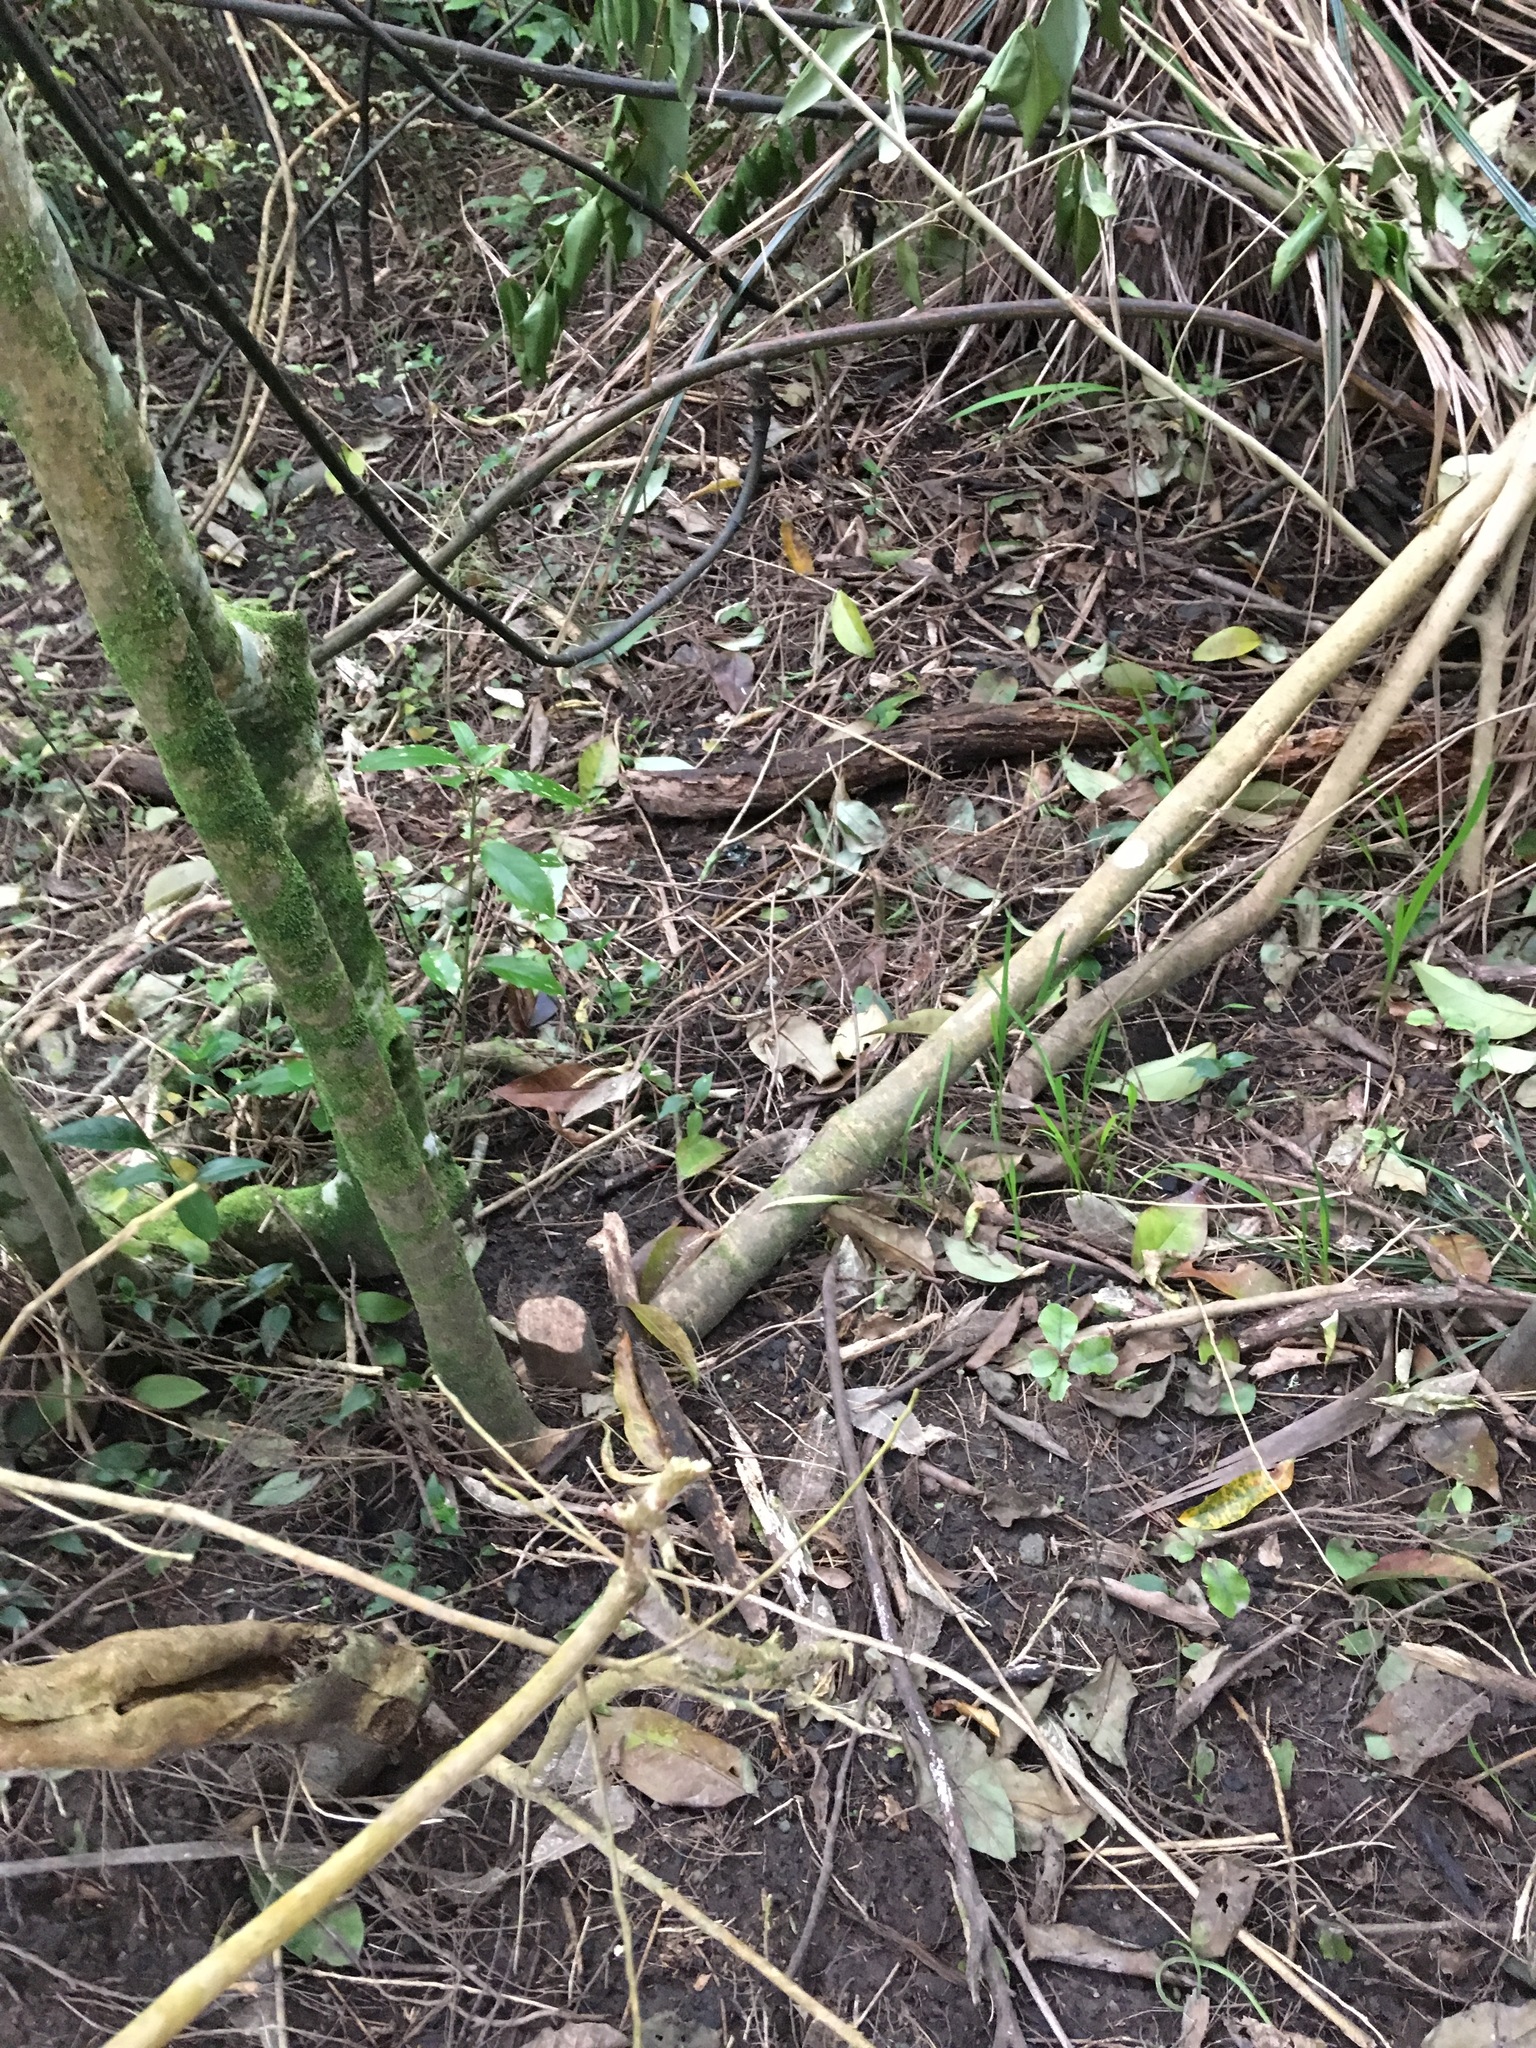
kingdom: Plantae
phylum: Tracheophyta
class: Magnoliopsida
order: Lamiales
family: Oleaceae
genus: Ligustrum
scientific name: Ligustrum lucidum
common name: Glossy privet
